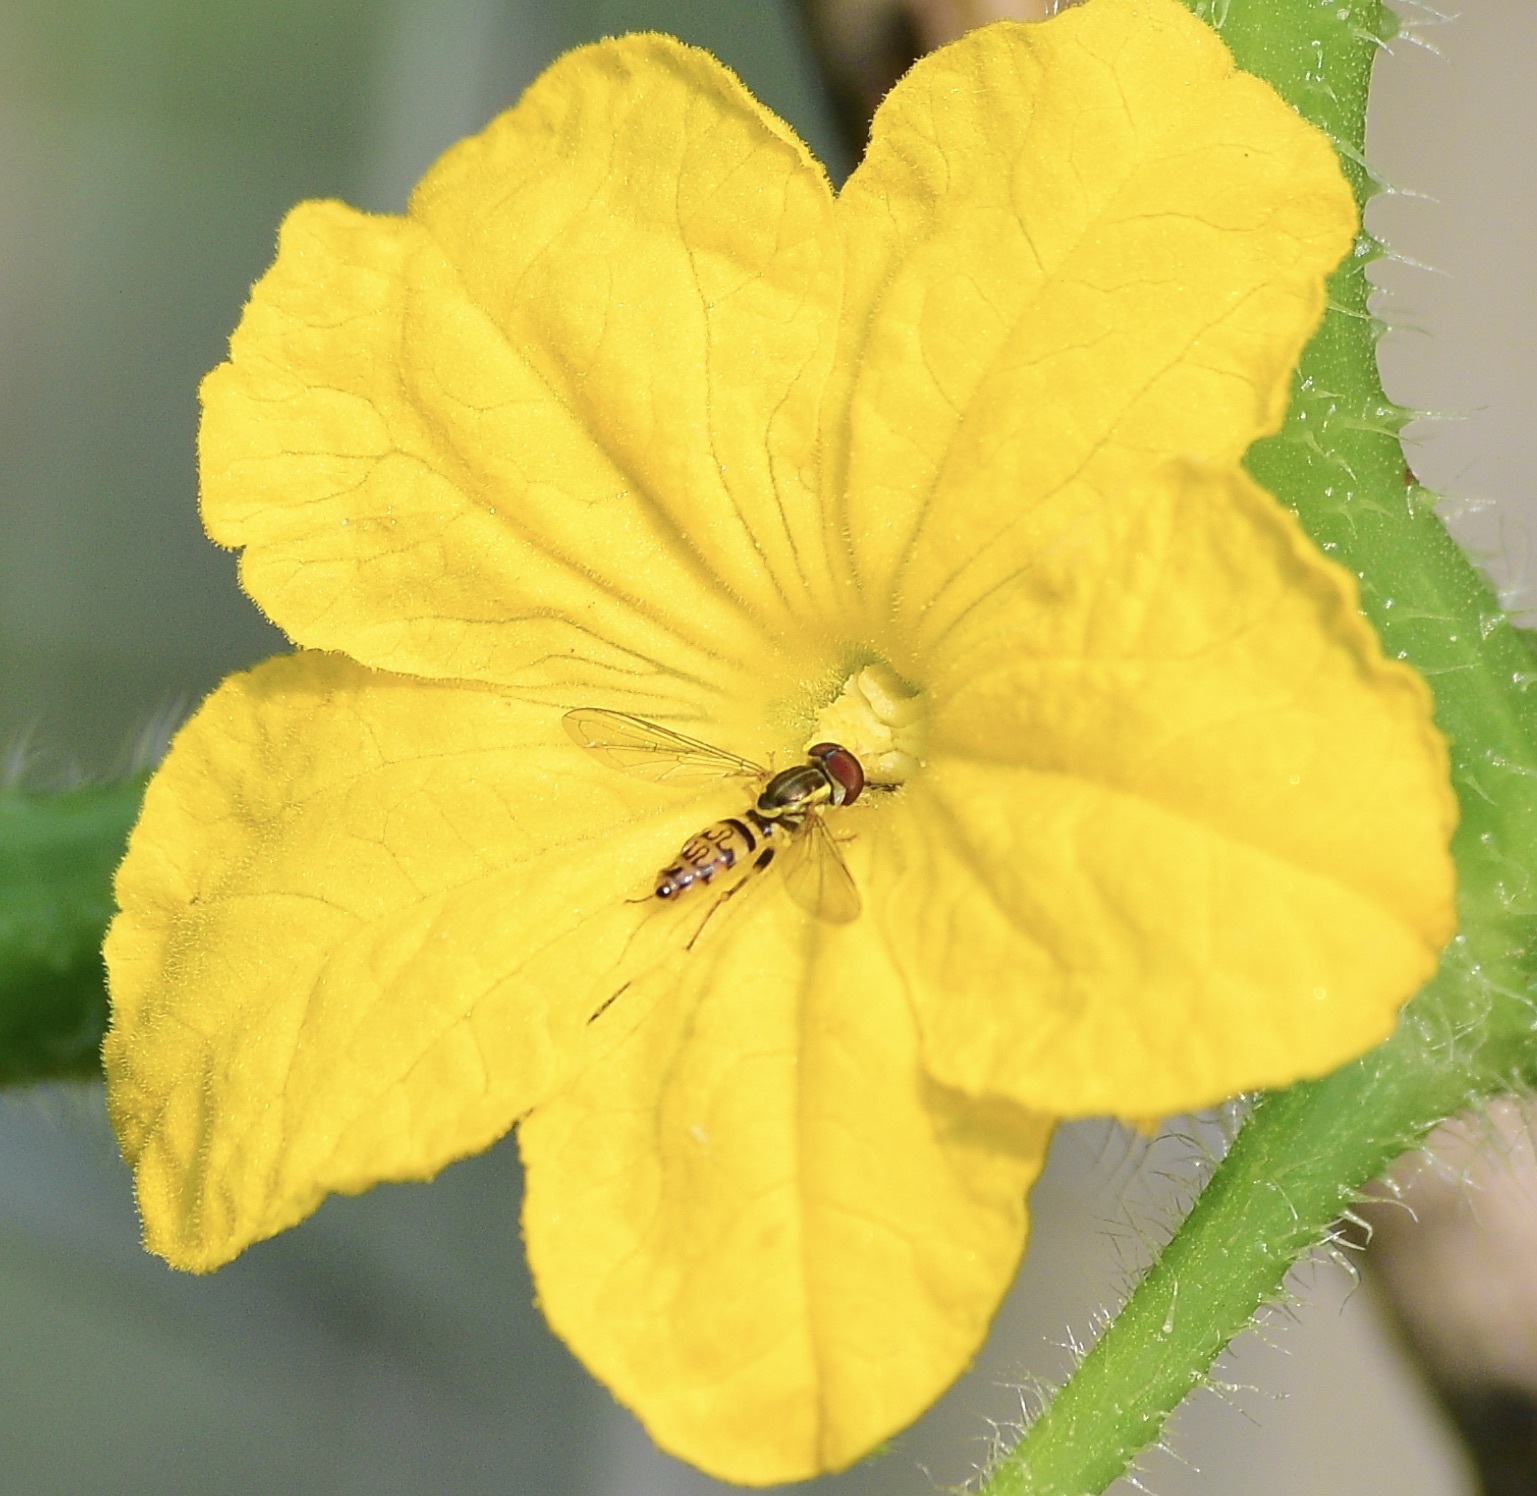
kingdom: Animalia
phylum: Arthropoda
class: Insecta
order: Diptera
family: Syrphidae
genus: Toxomerus
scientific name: Toxomerus geminatus
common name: Eastern calligrapher
